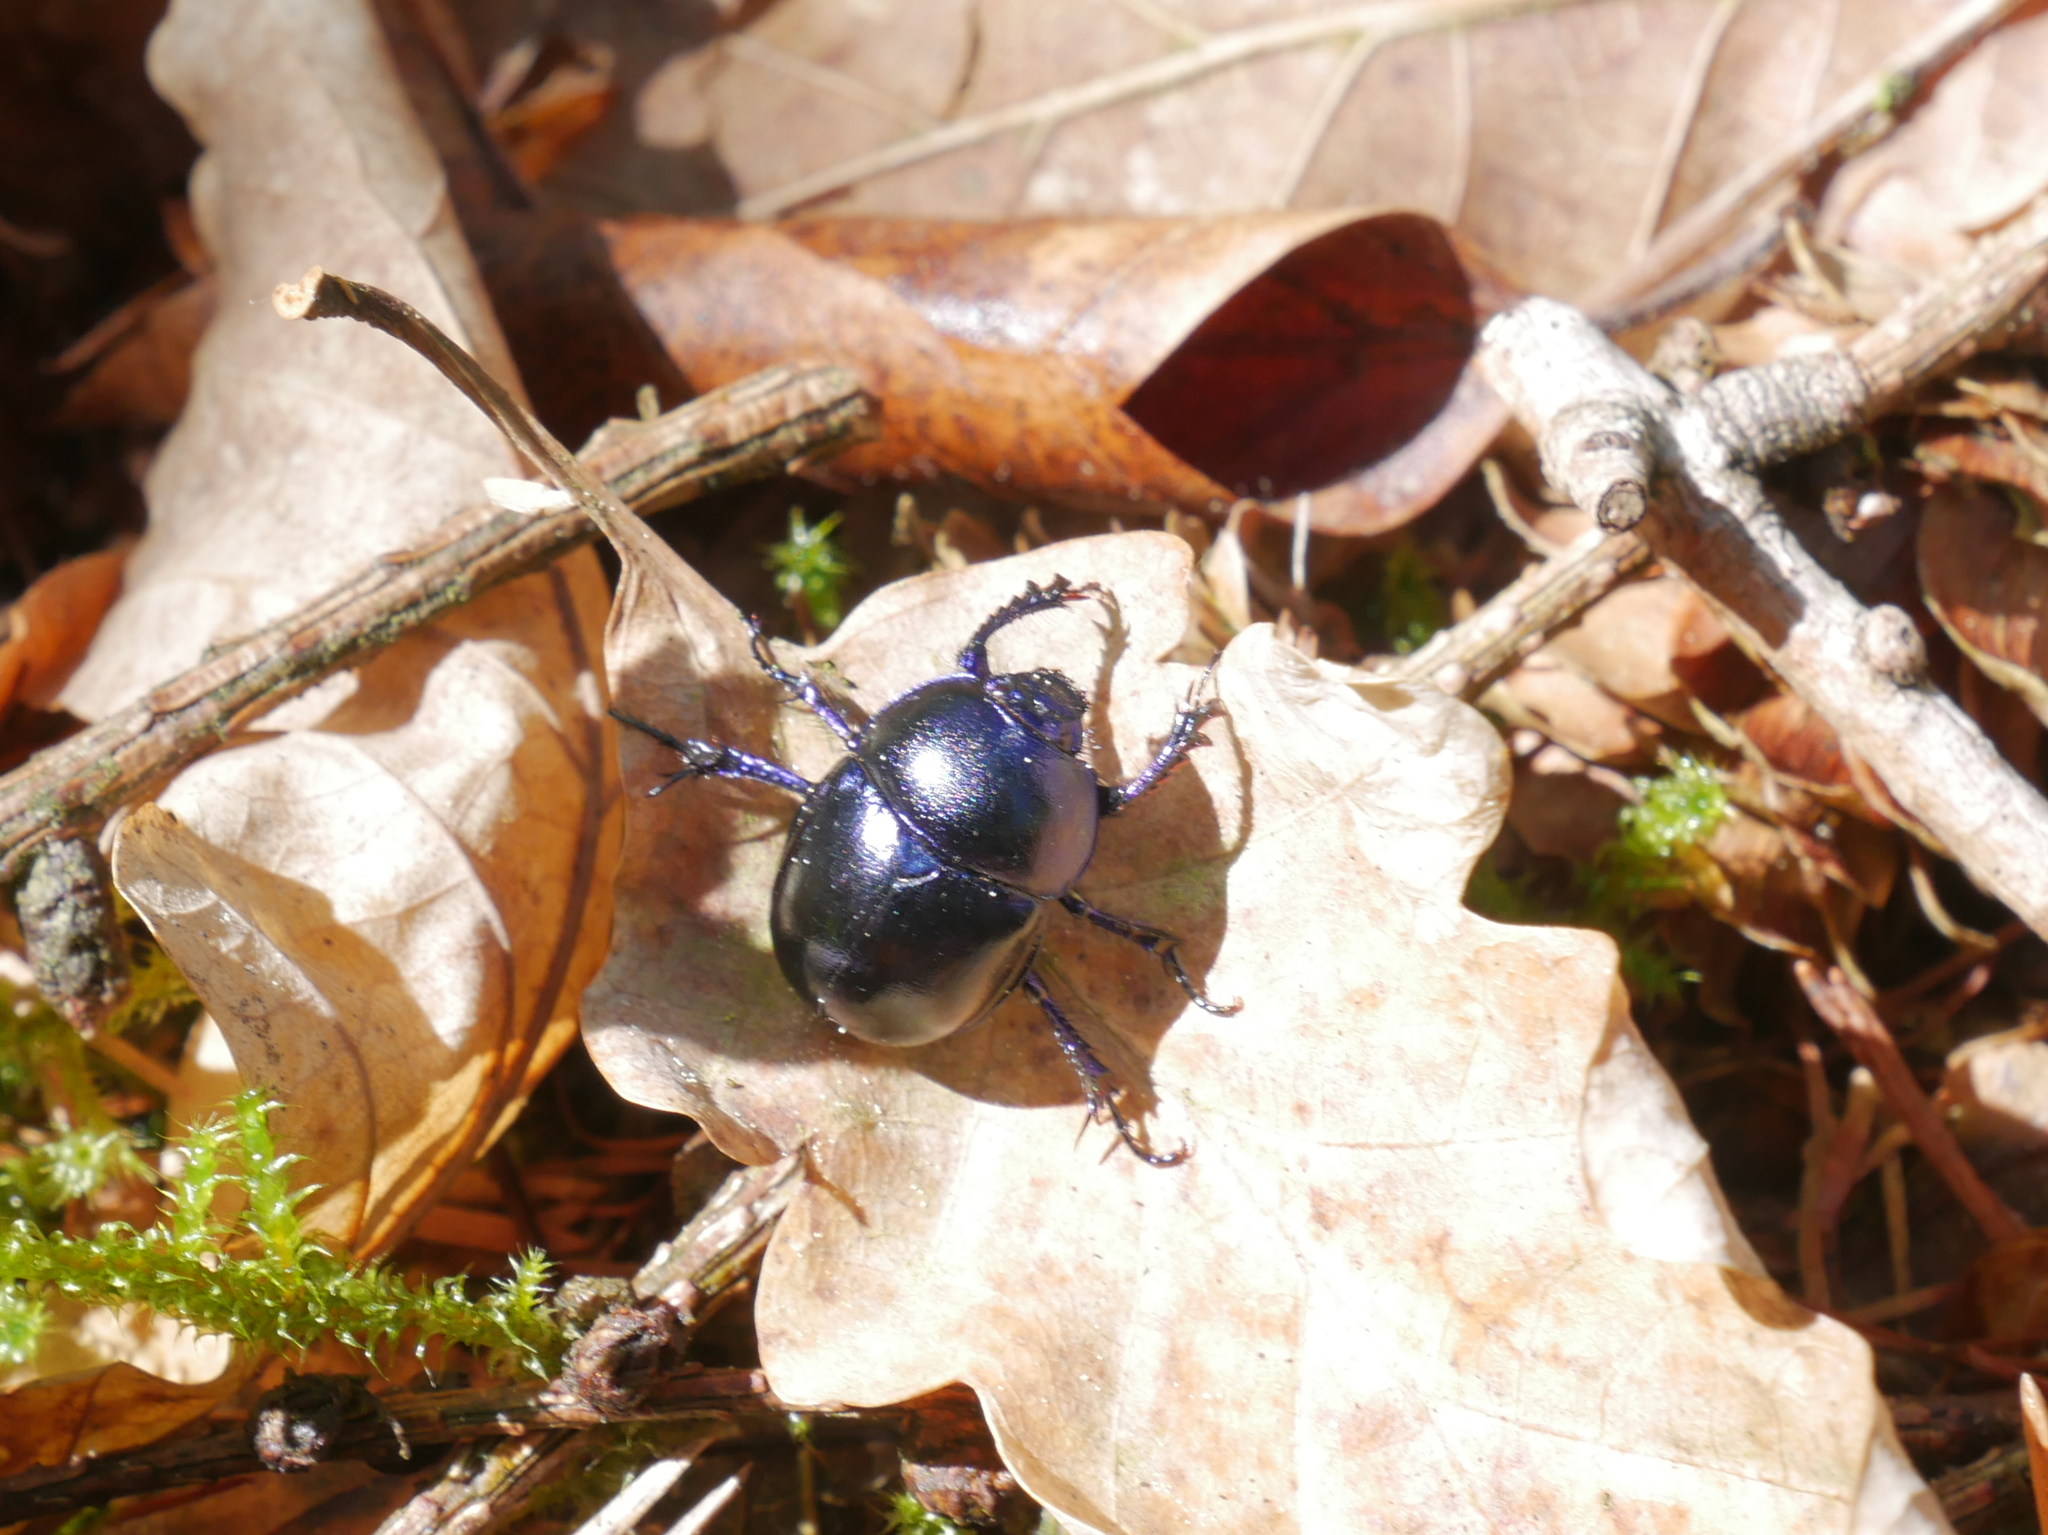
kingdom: Animalia
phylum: Arthropoda
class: Insecta
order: Coleoptera
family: Geotrupidae
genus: Trypocopris
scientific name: Trypocopris vernalis
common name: Spring dumbledor
